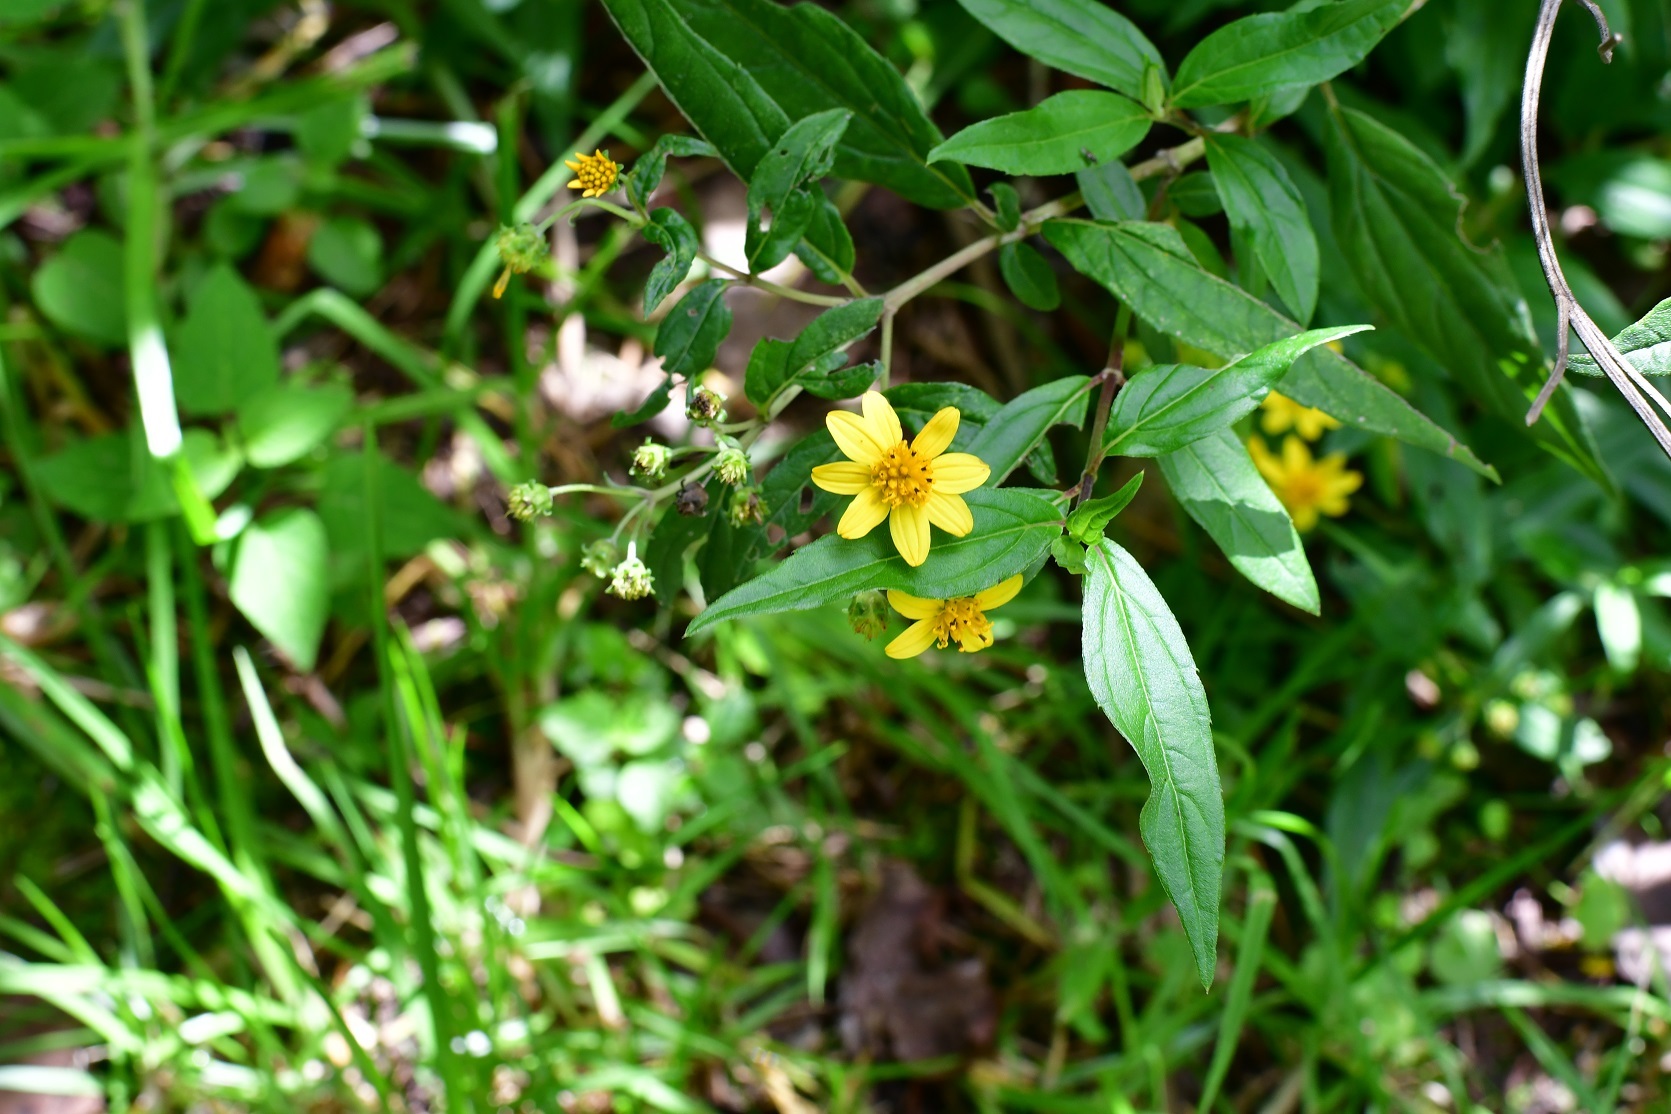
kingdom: Plantae
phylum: Tracheophyta
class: Magnoliopsida
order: Asterales
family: Asteraceae
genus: Perymenium
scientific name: Perymenium ghiesbreghtii
